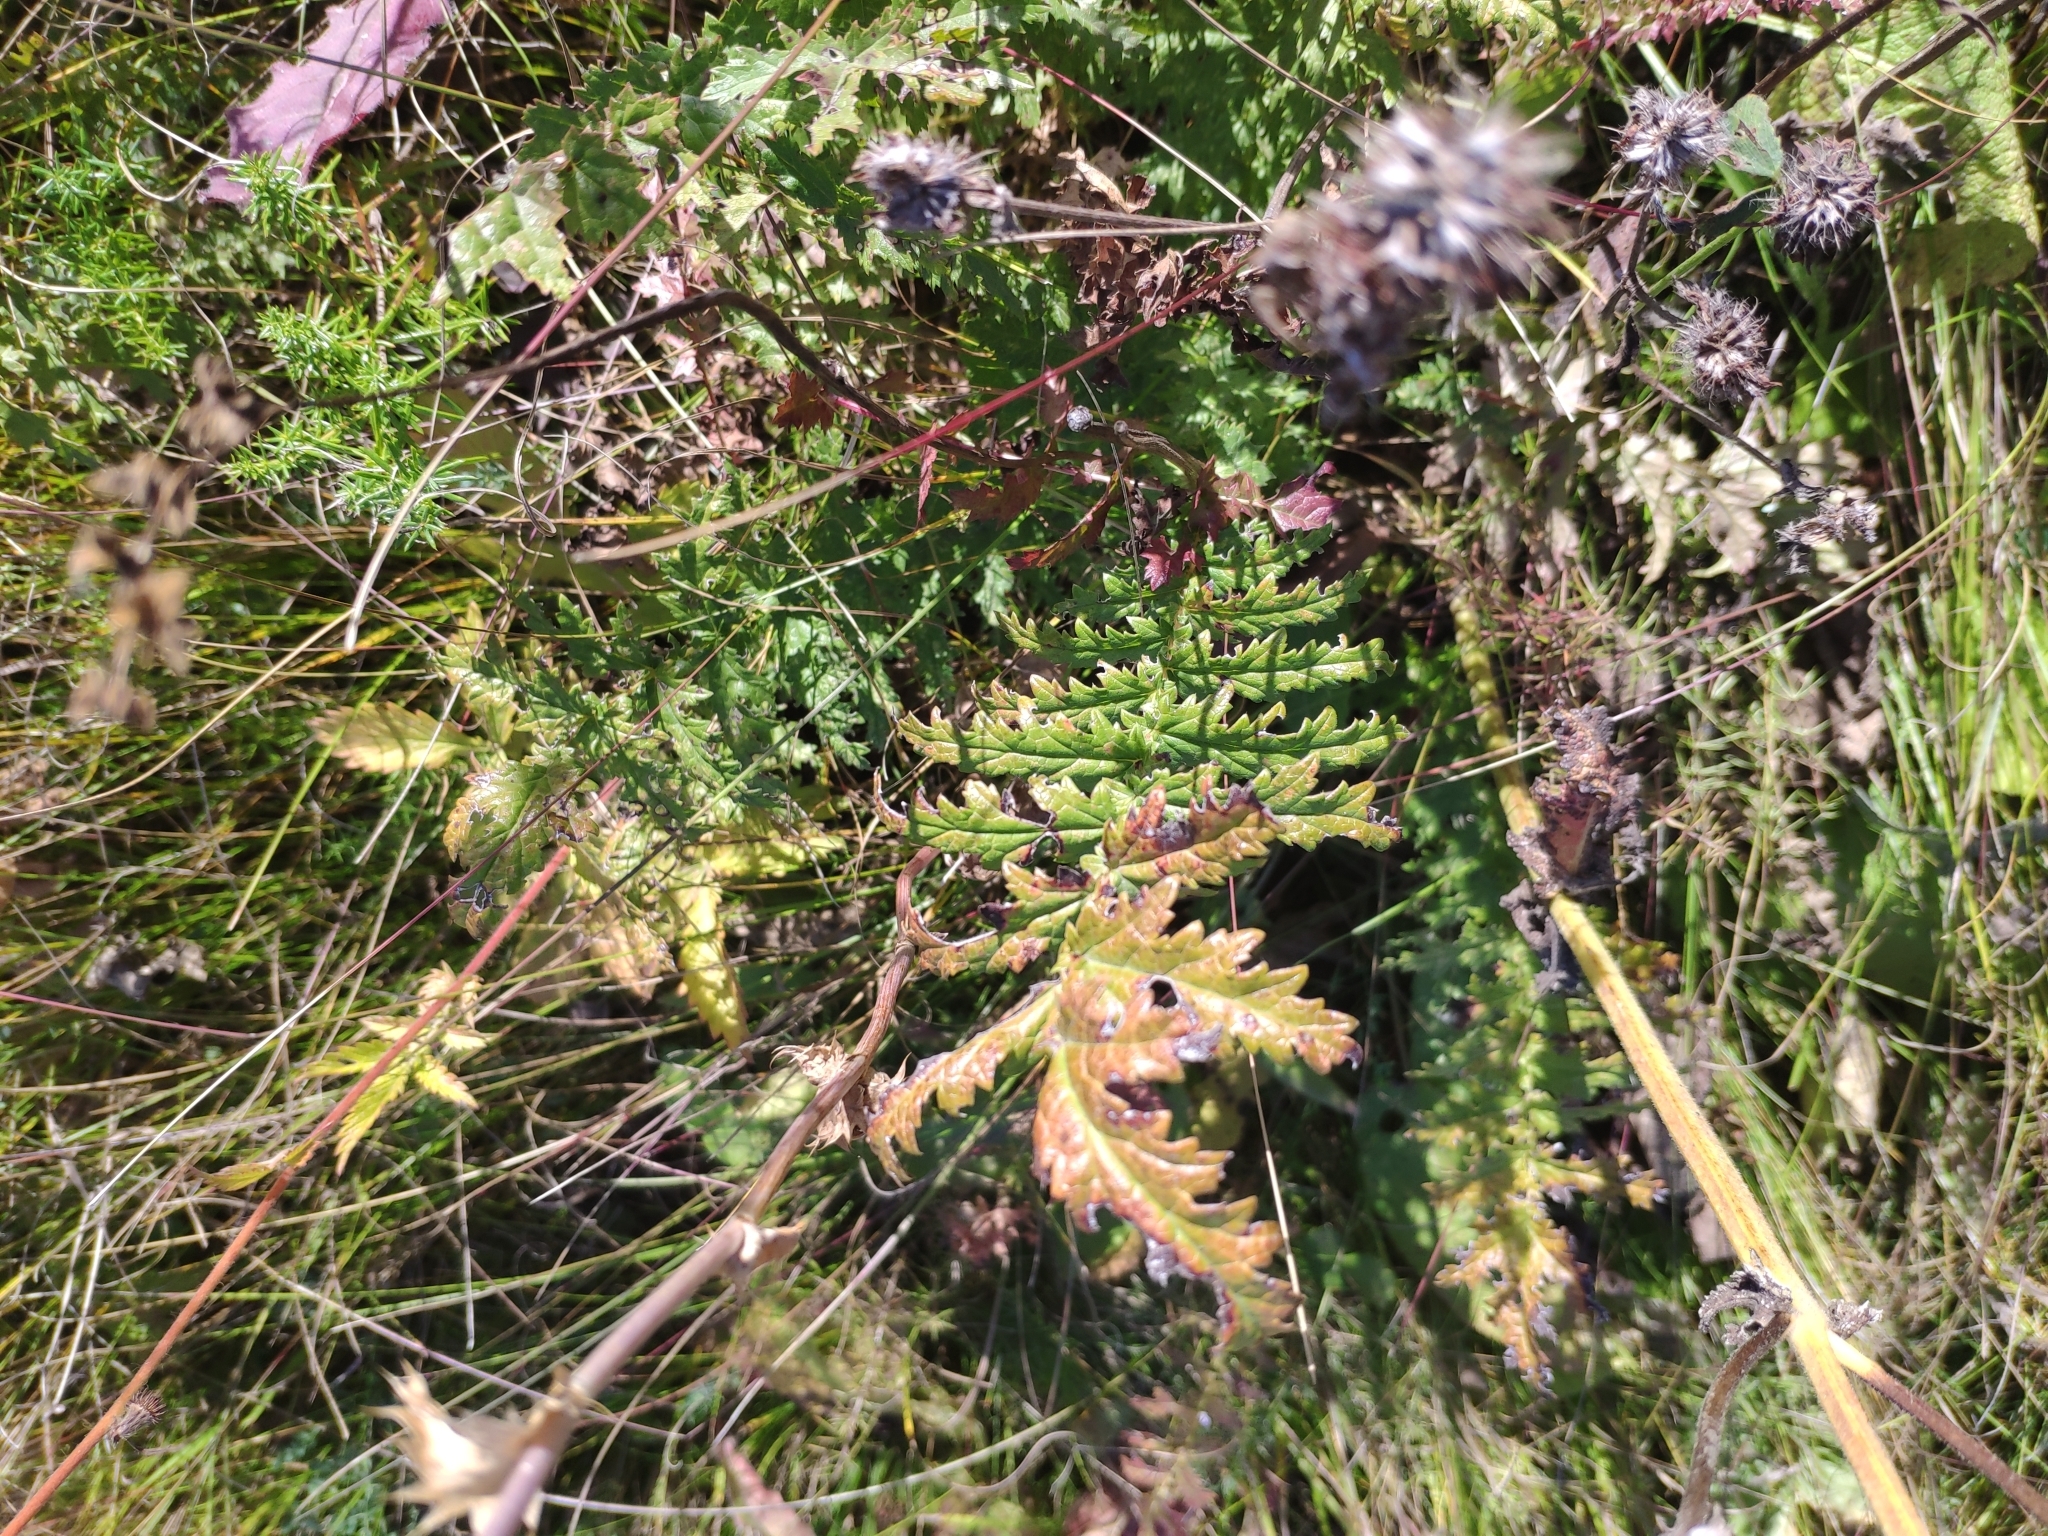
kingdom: Plantae
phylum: Tracheophyta
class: Magnoliopsida
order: Rosales
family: Rosaceae
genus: Filipendula
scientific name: Filipendula vulgaris
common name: Dropwort
